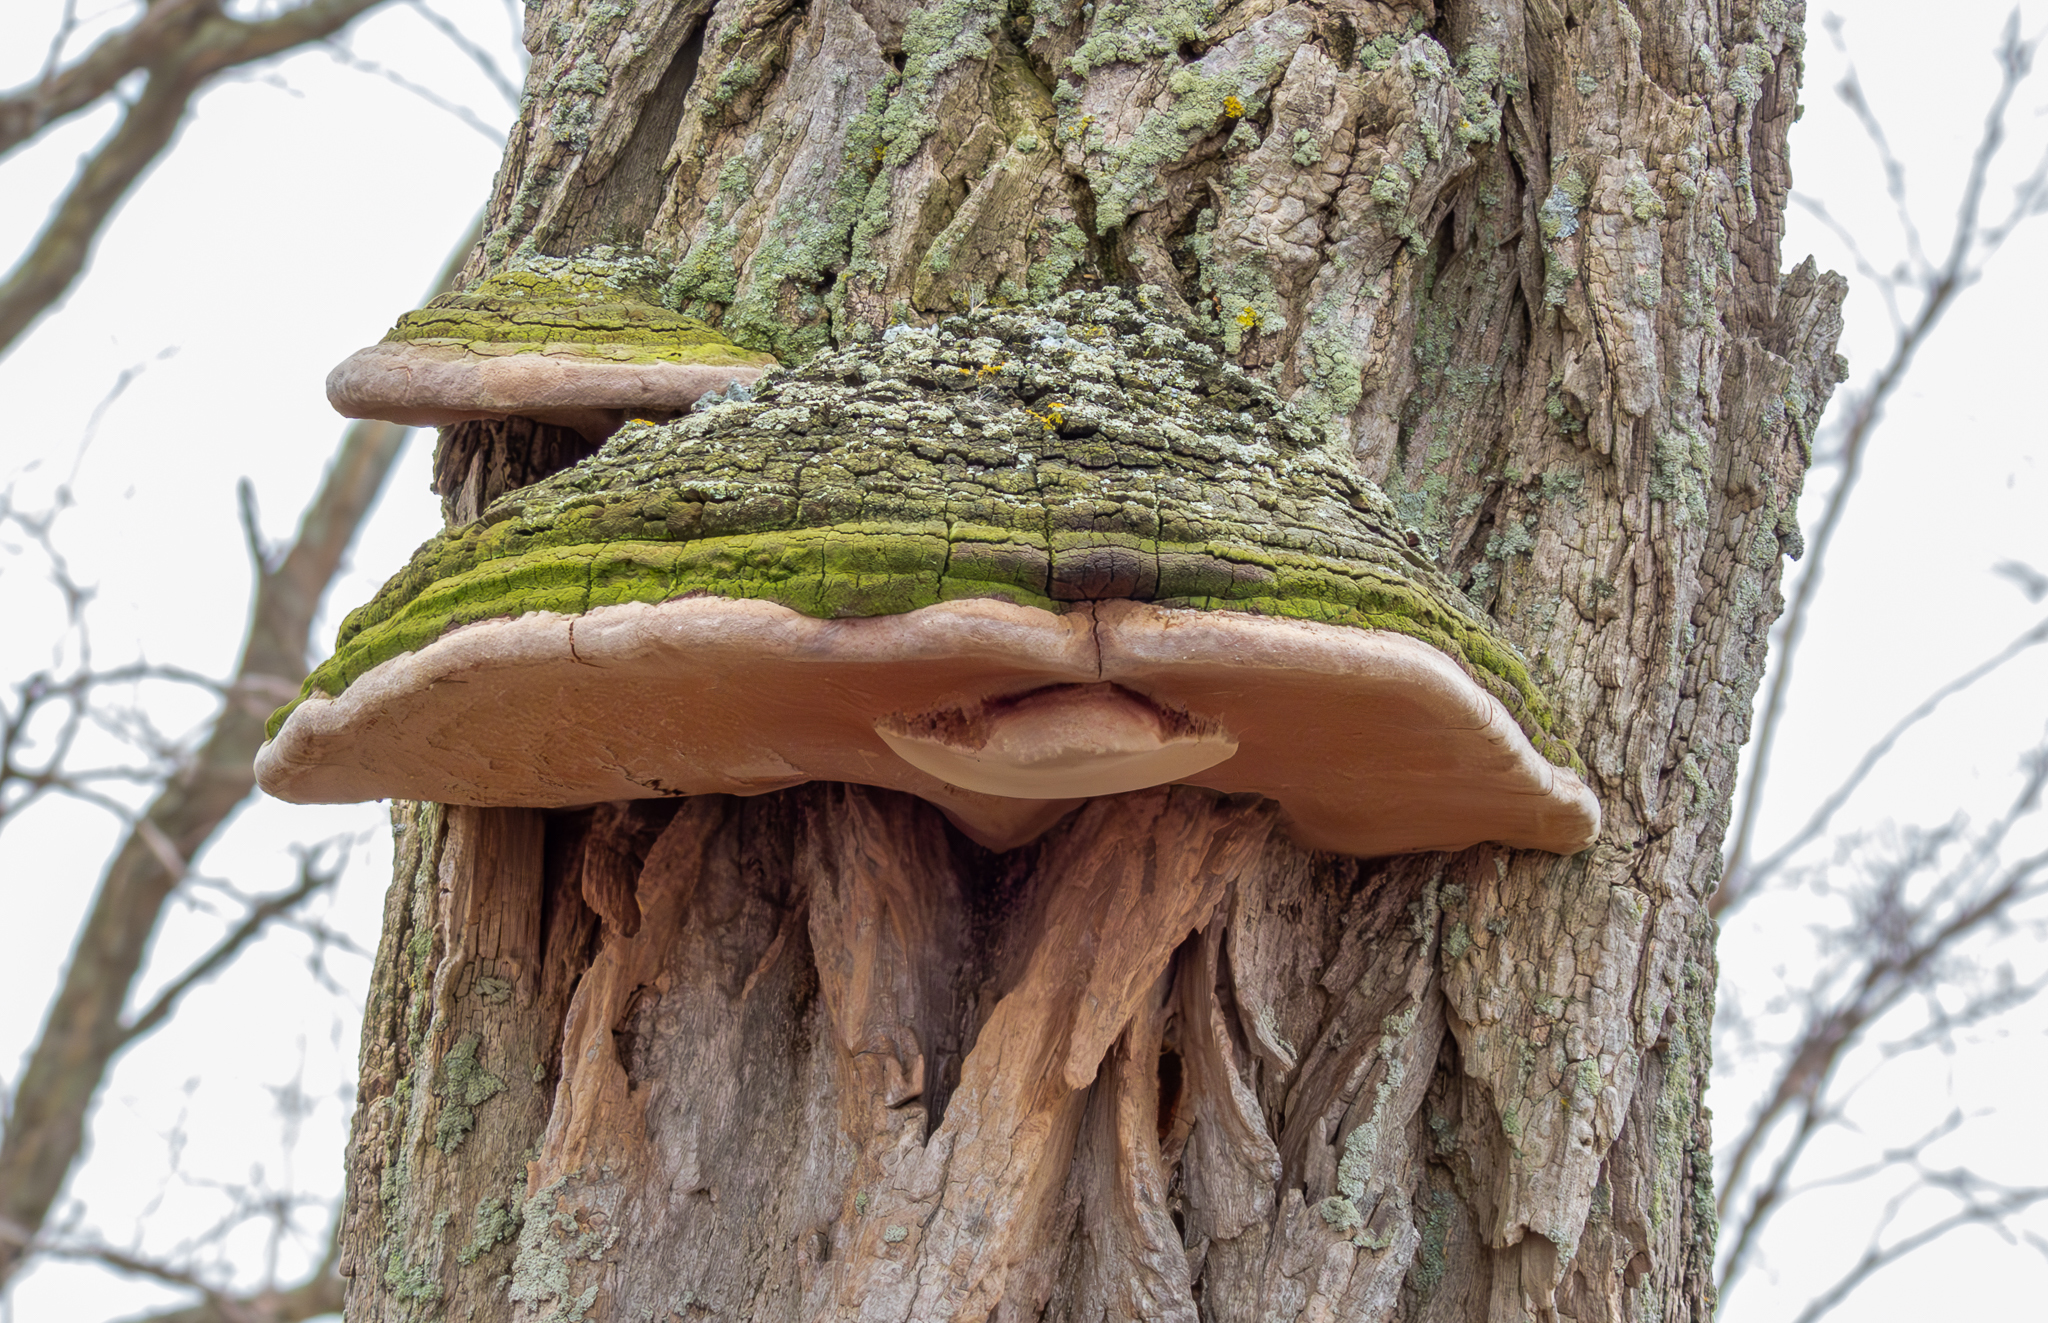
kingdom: Fungi
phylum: Basidiomycota
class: Agaricomycetes
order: Hymenochaetales
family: Hymenochaetaceae
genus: Phellinus
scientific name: Phellinus robiniae
